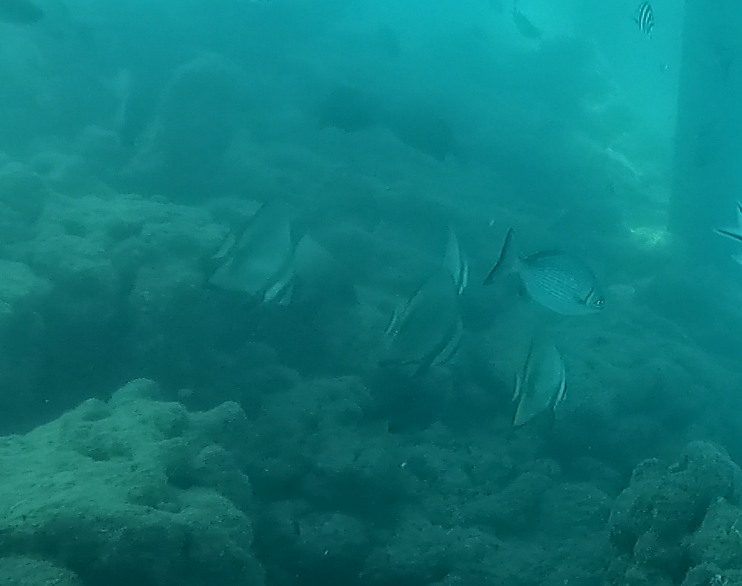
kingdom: Animalia
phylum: Chordata
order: Perciformes
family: Ephippidae
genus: Platax
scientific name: Platax pinnatus
